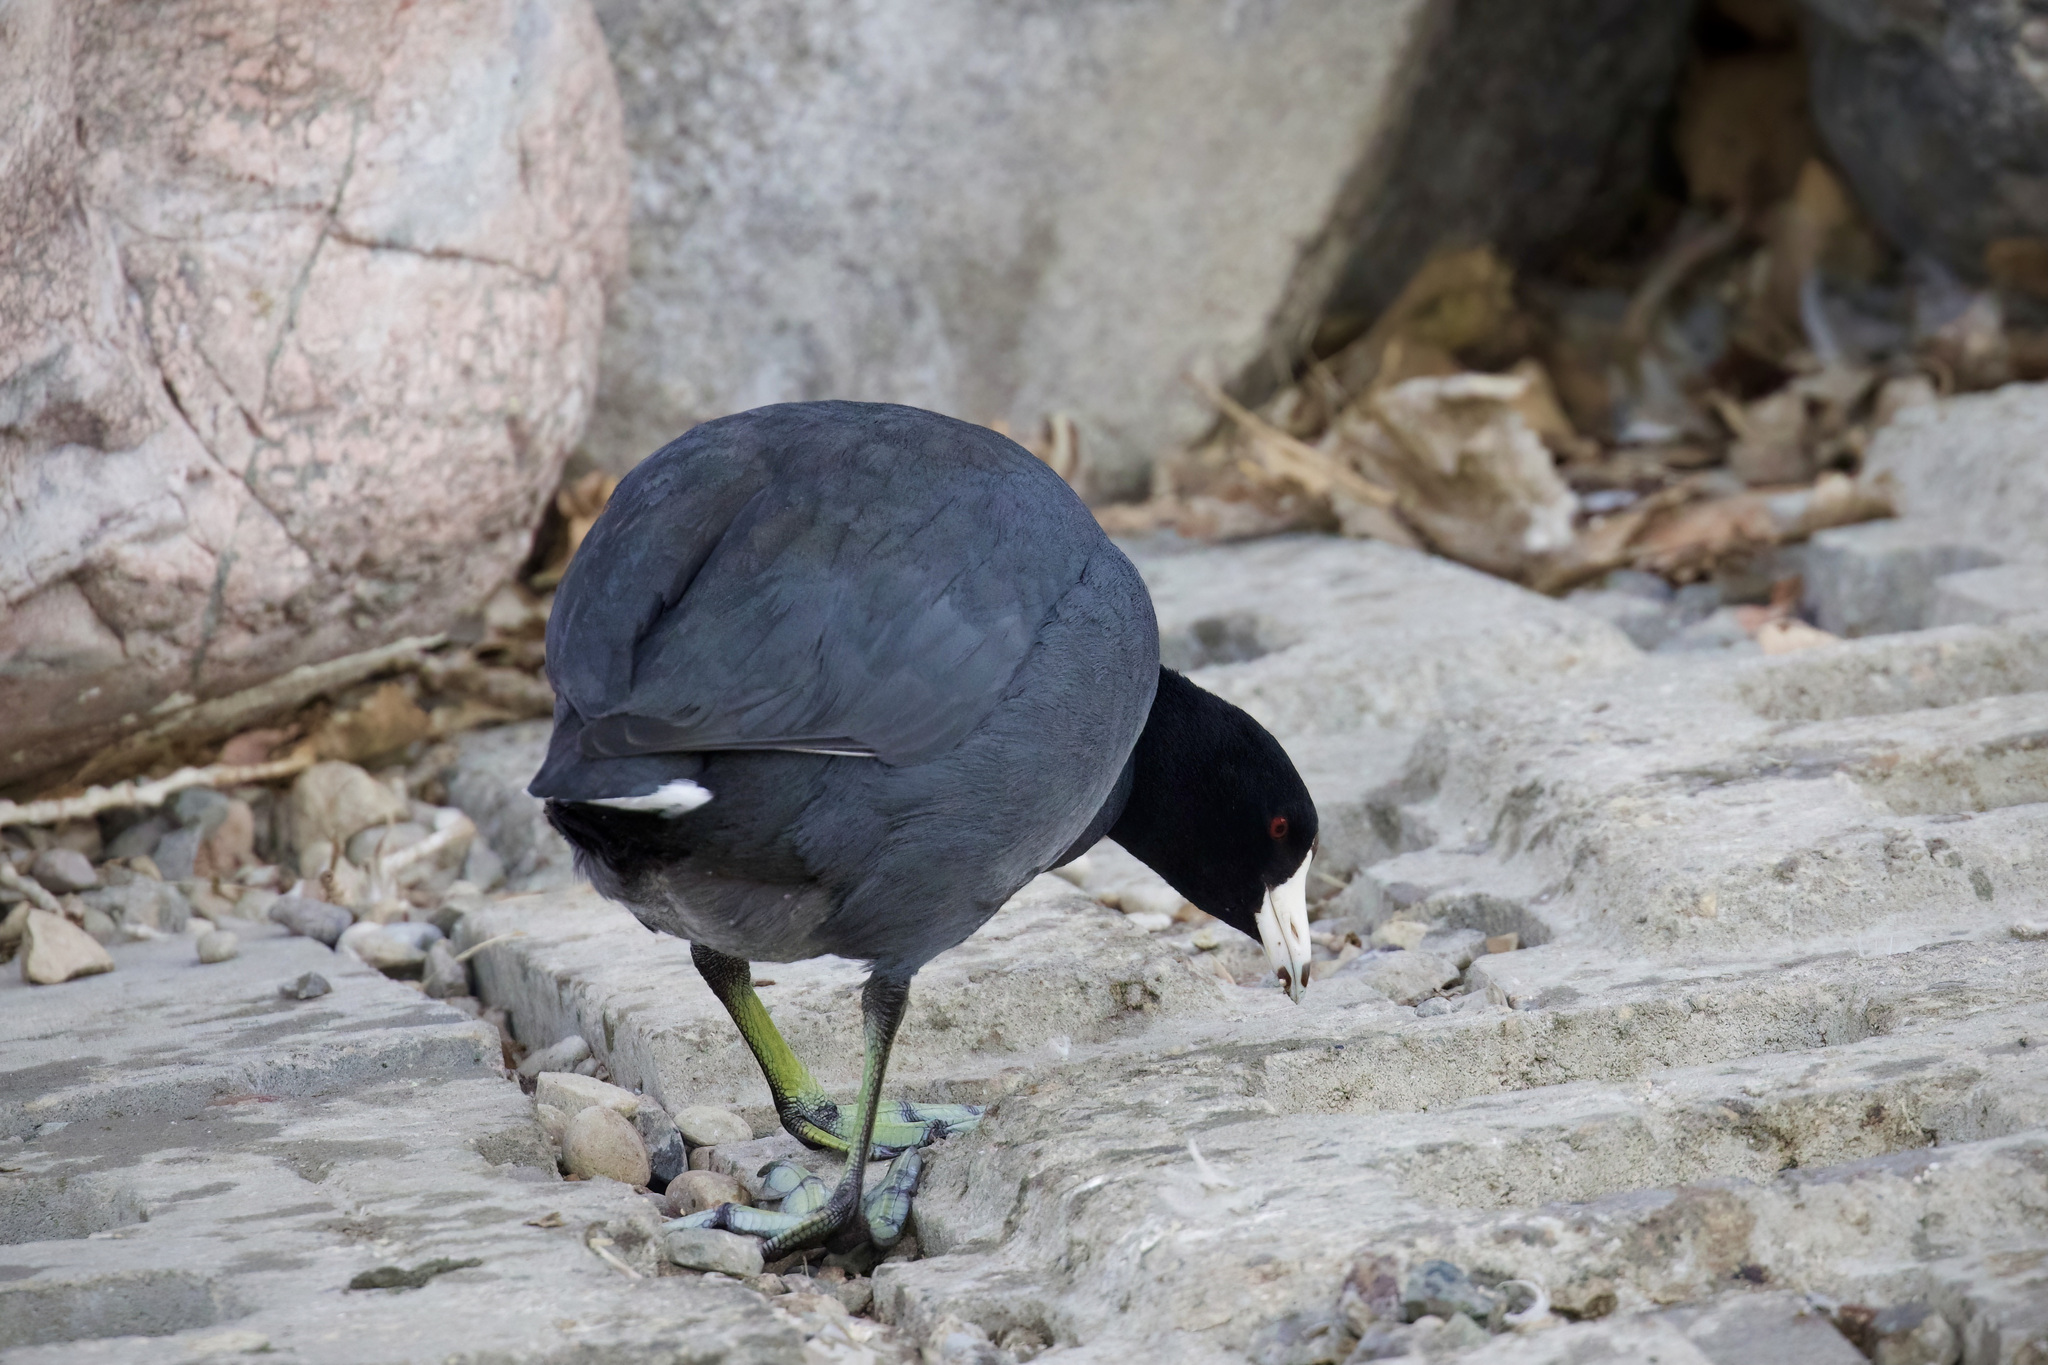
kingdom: Animalia
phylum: Chordata
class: Aves
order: Gruiformes
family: Rallidae
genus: Fulica
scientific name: Fulica americana
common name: American coot
